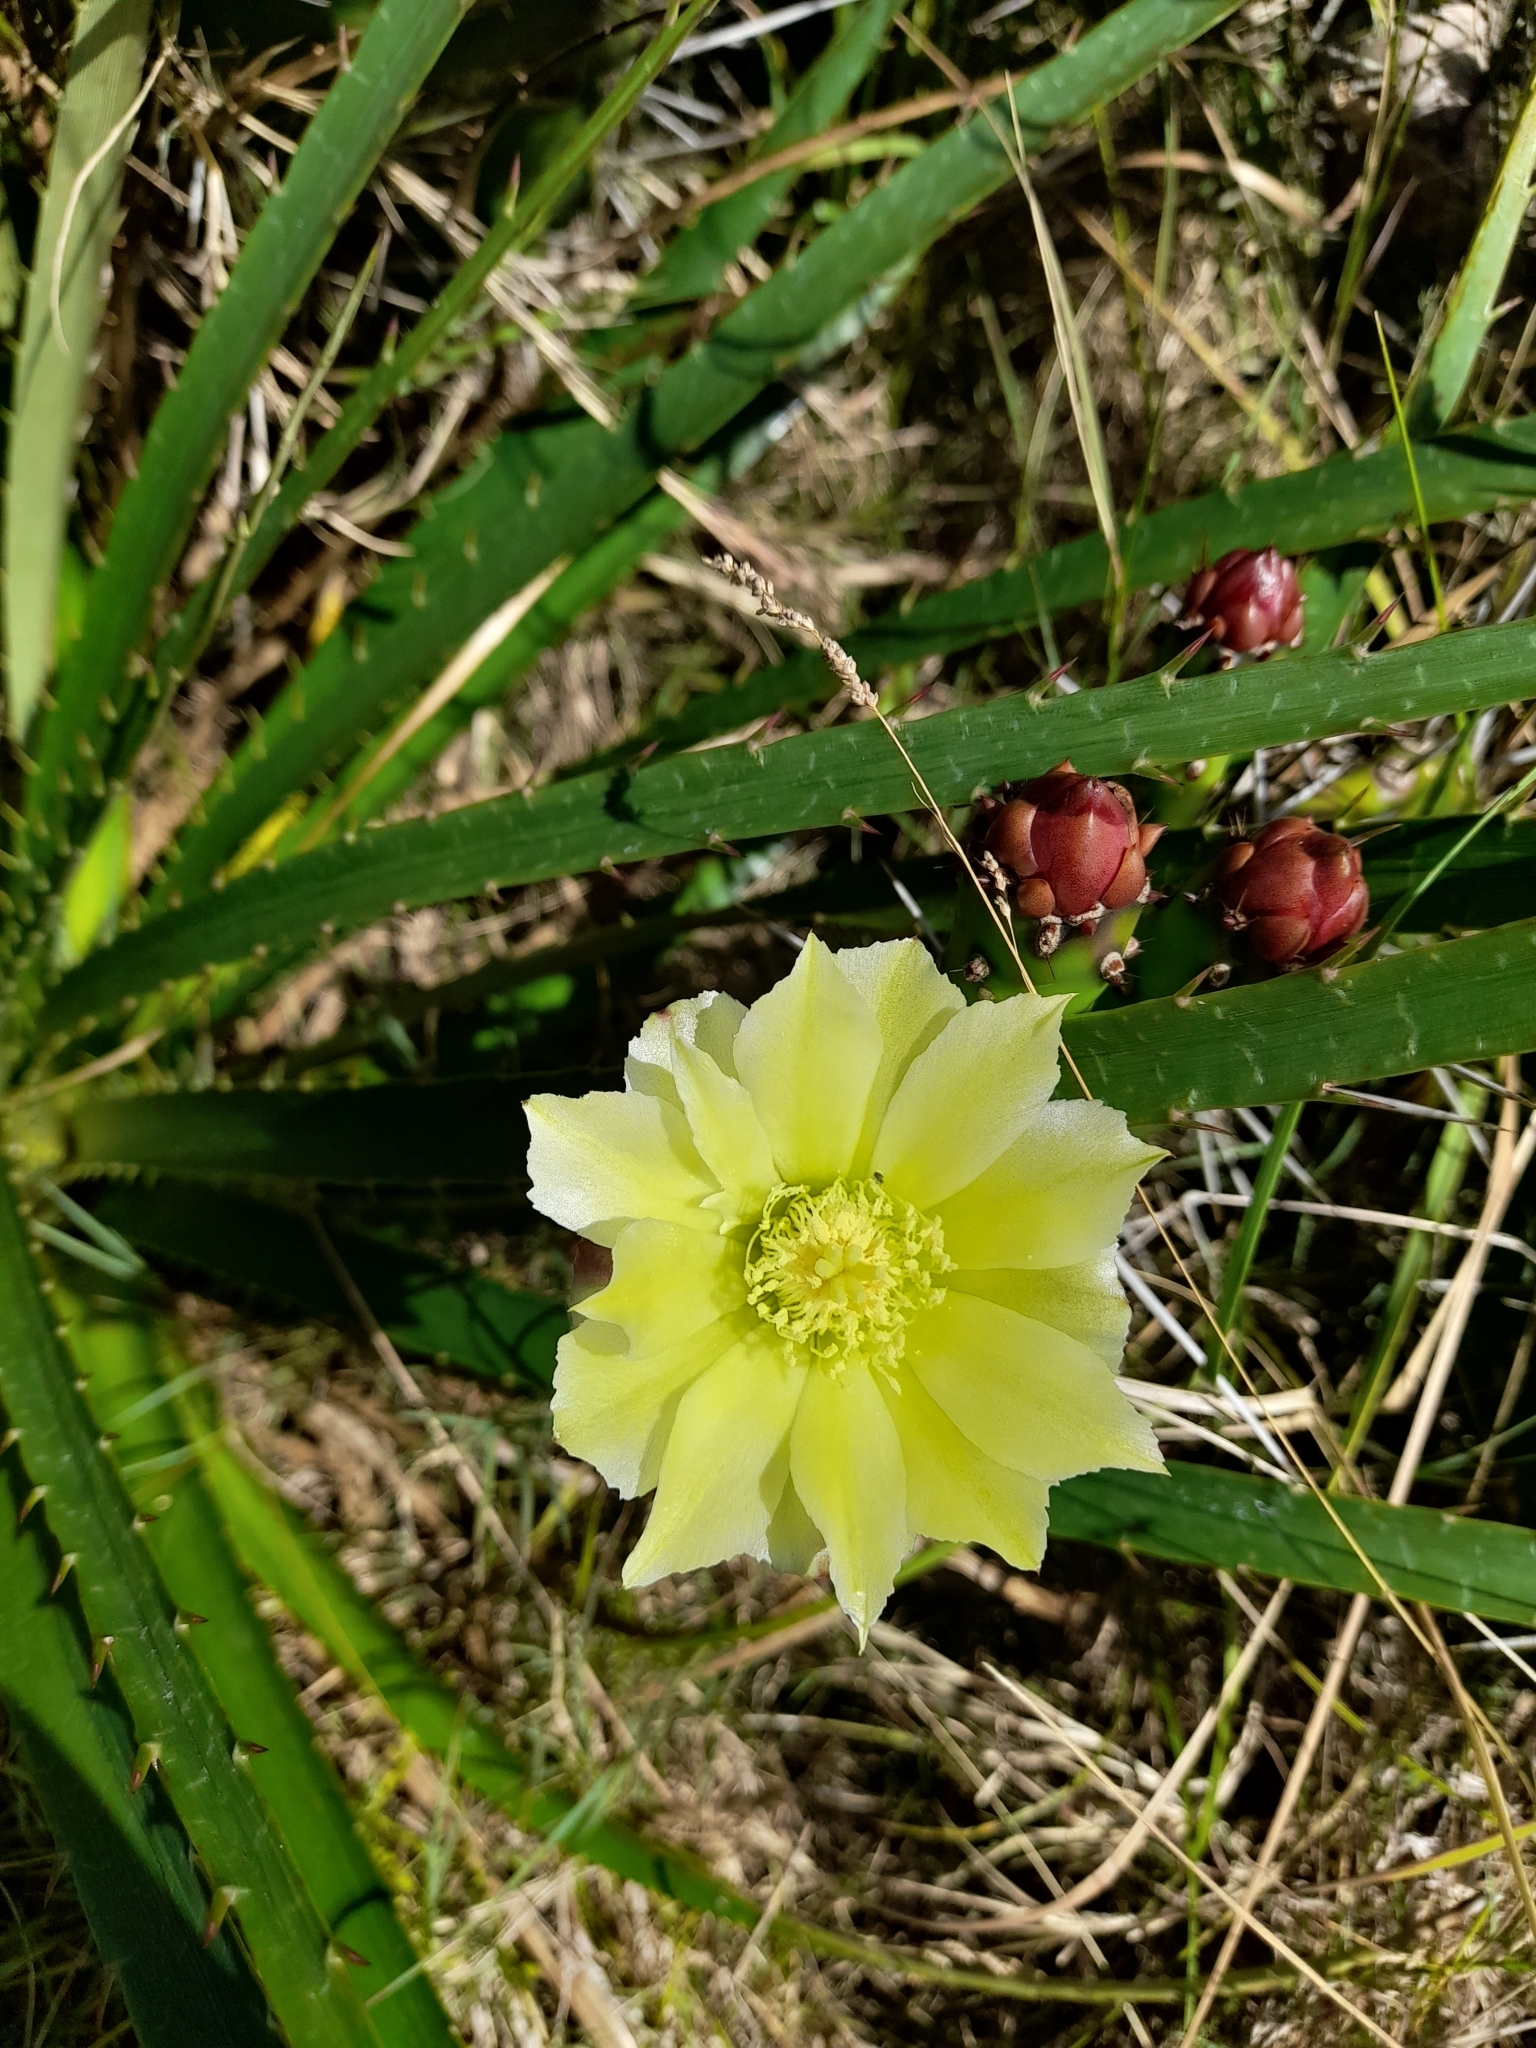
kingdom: Plantae
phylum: Tracheophyta
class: Magnoliopsida
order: Caryophyllales
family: Cactaceae
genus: Opuntia
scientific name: Opuntia arechavaletae
